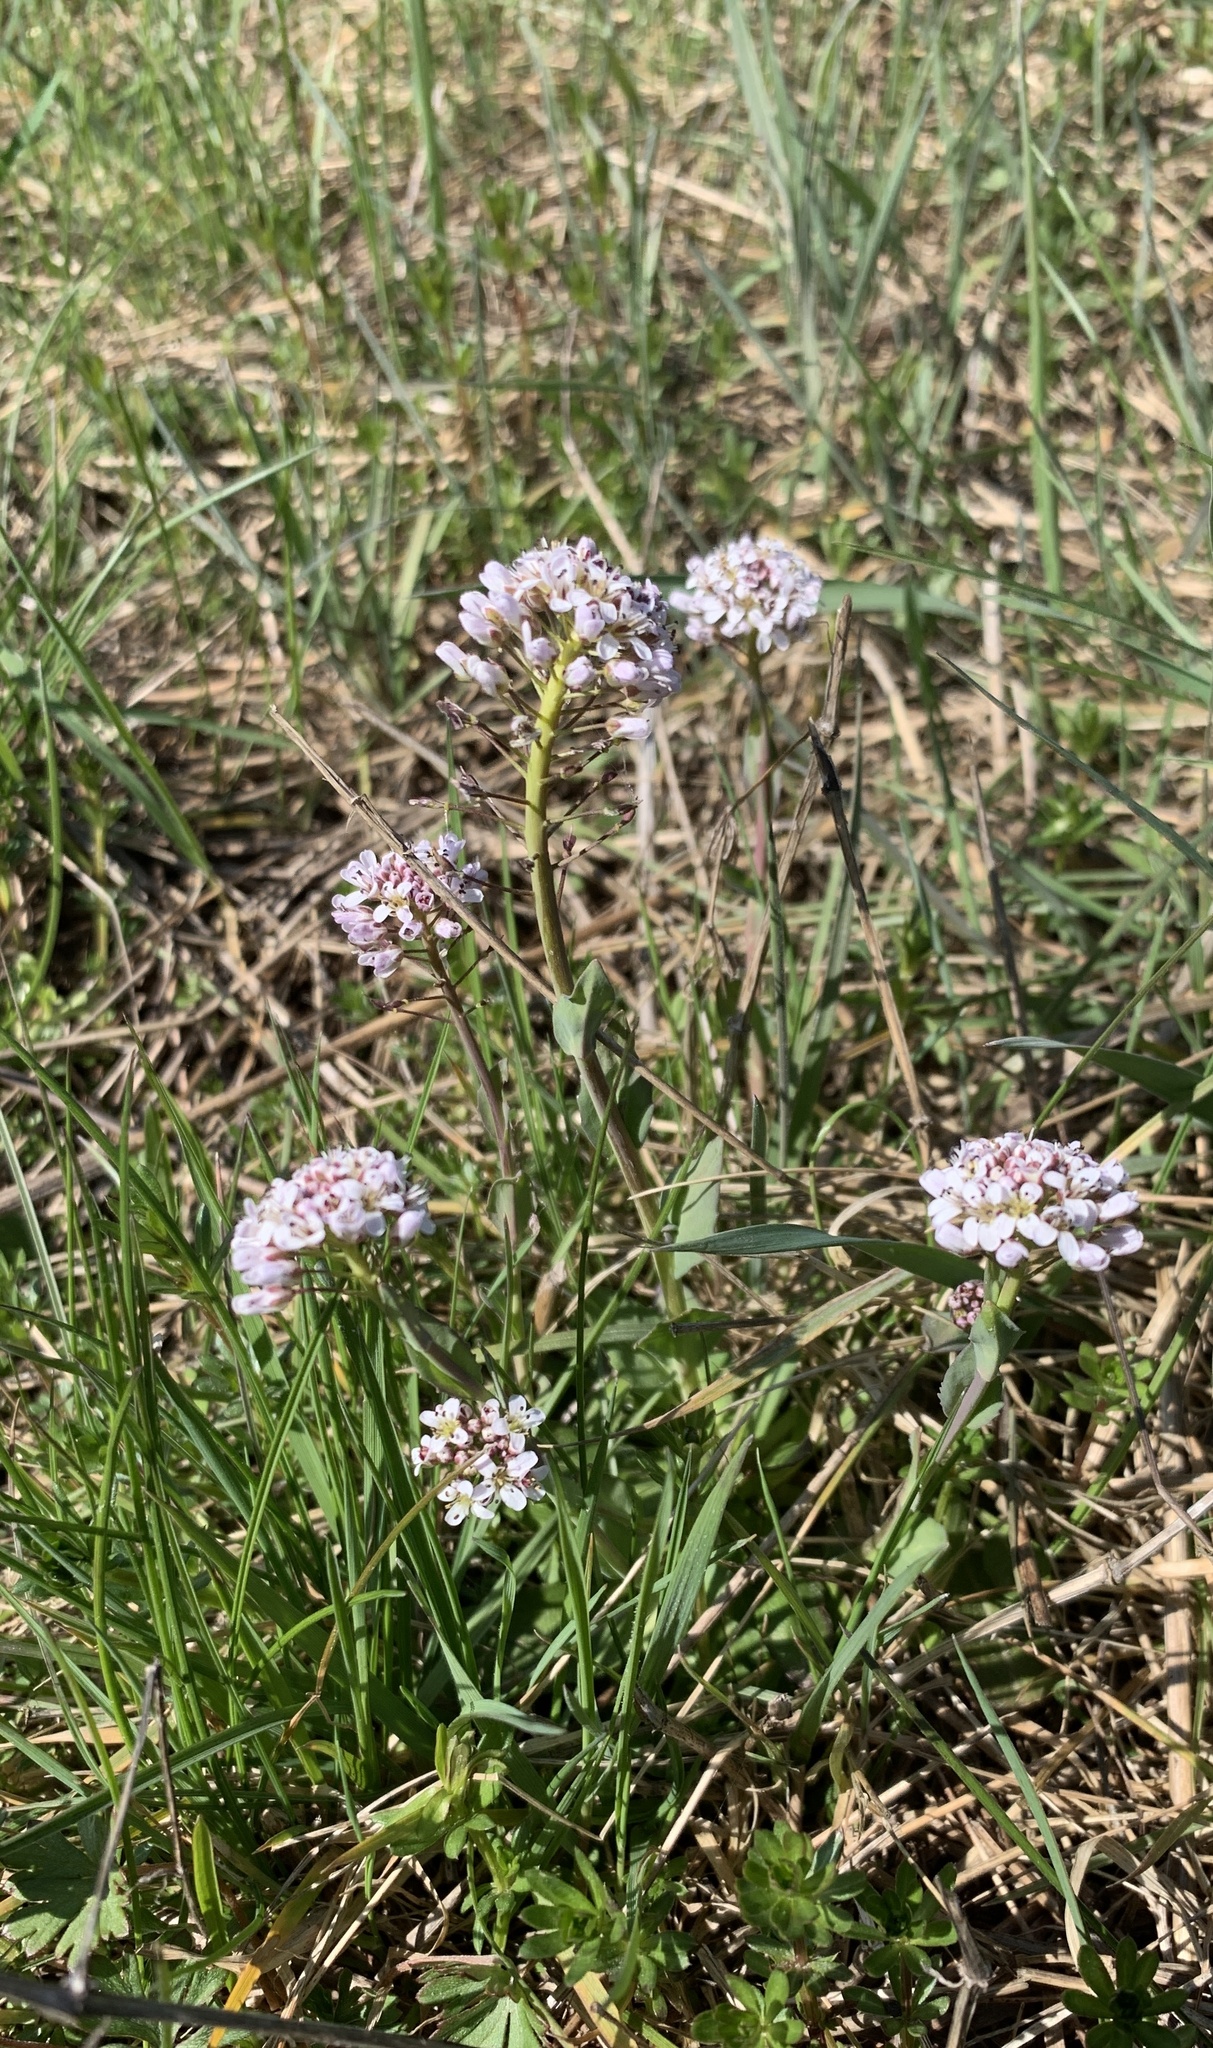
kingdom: Plantae
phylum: Tracheophyta
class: Magnoliopsida
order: Brassicales
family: Brassicaceae
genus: Noccaea
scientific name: Noccaea caerulescens
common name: Alpine pennycress
